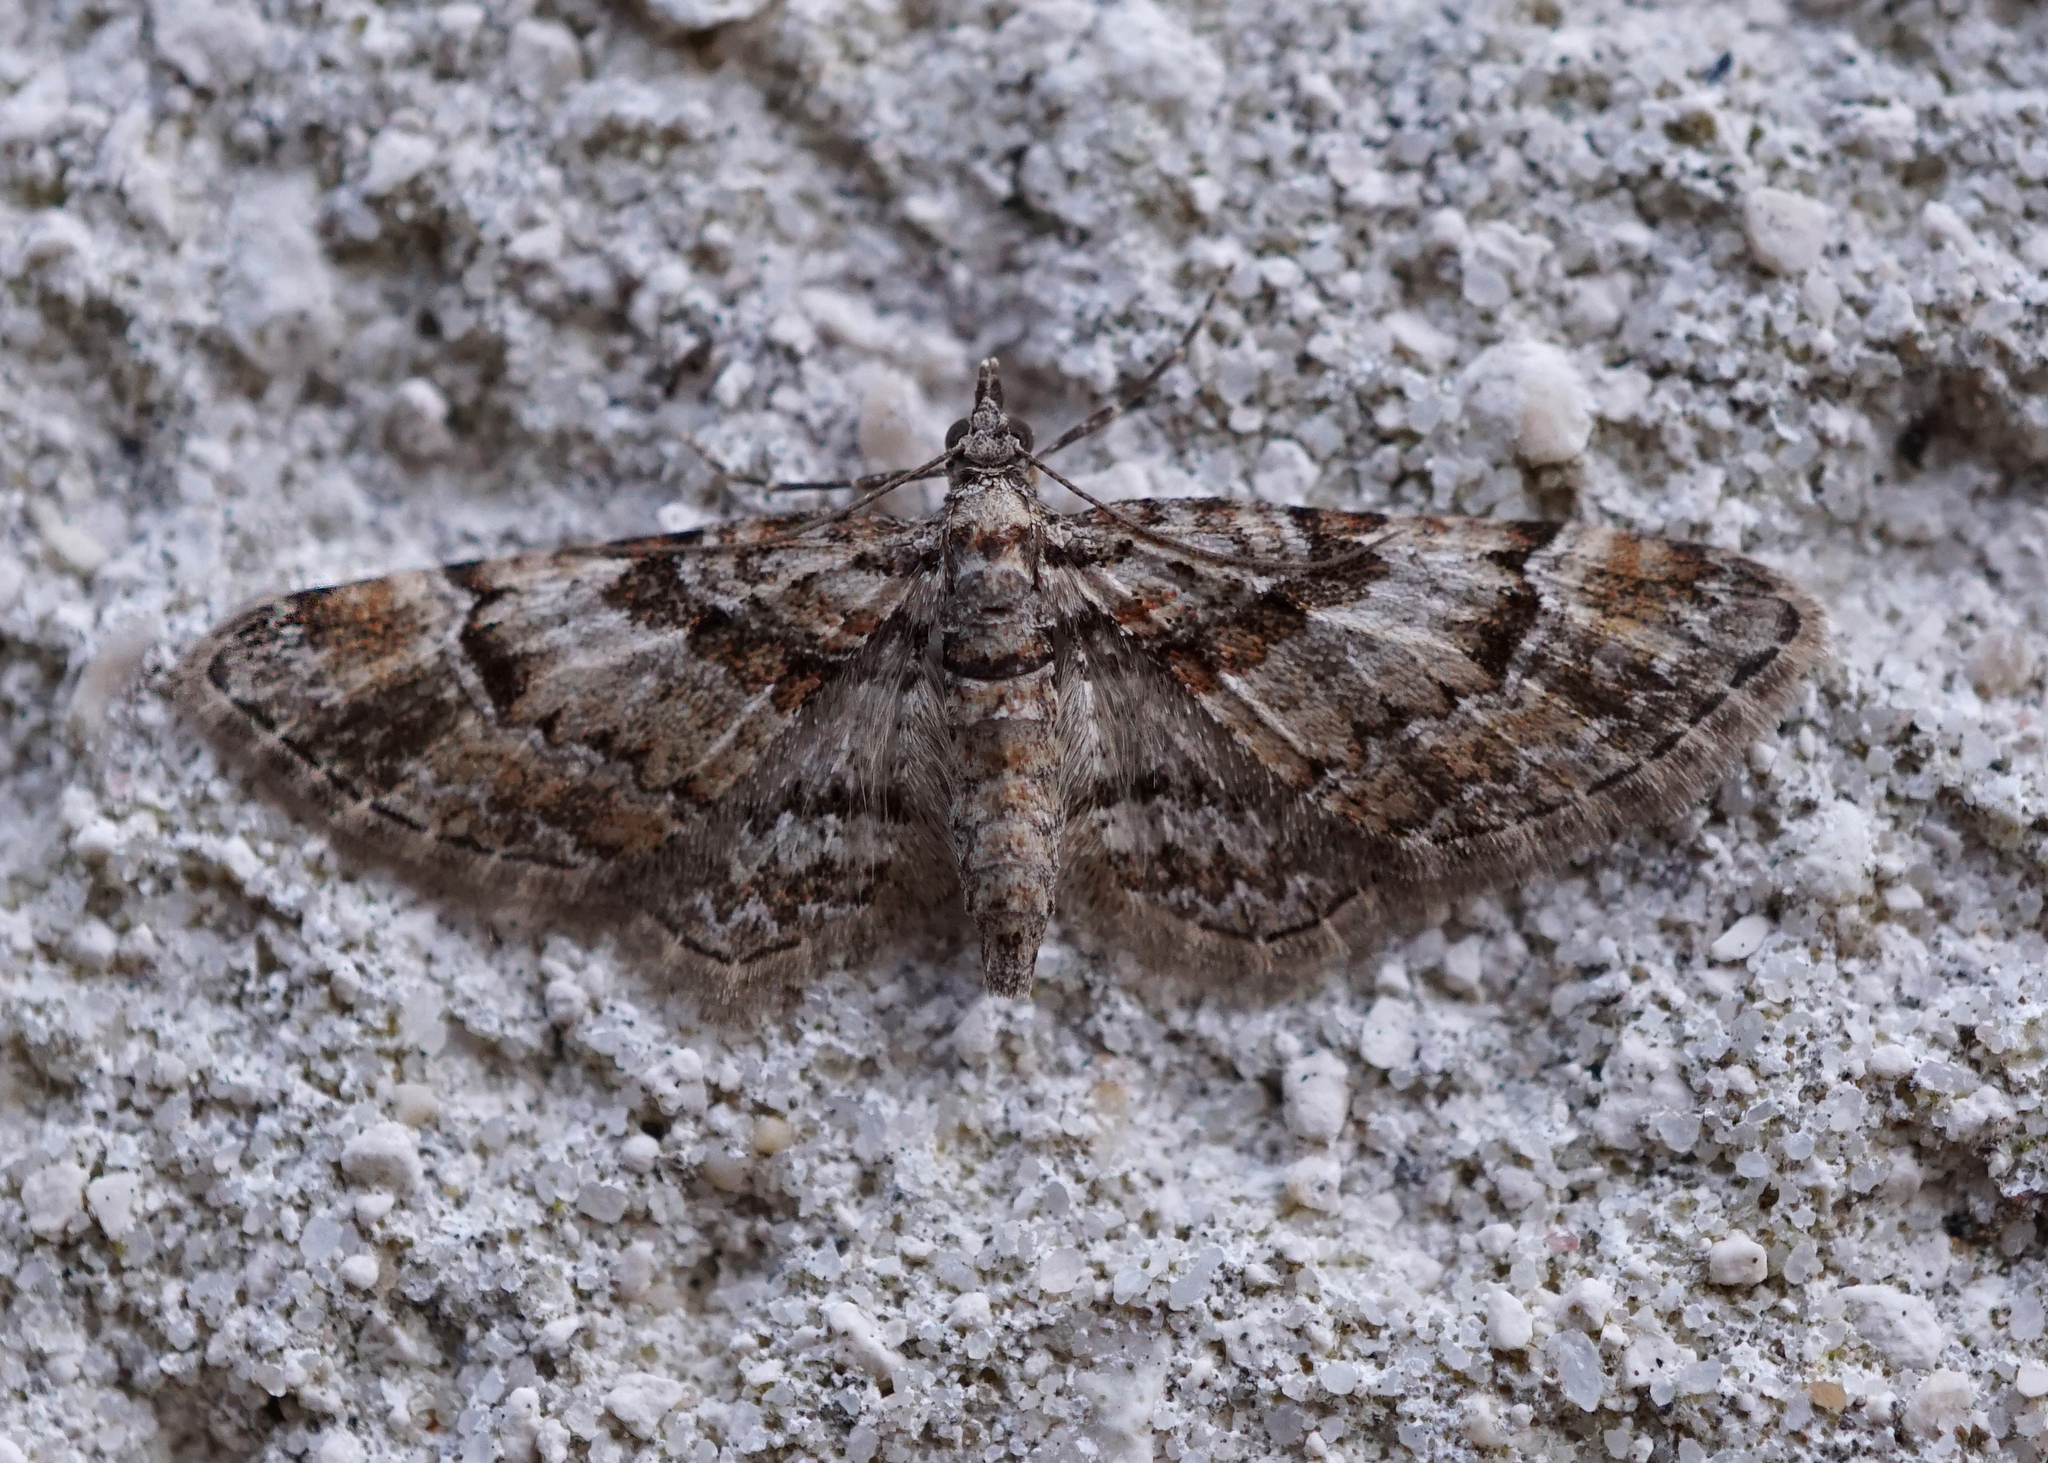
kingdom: Animalia
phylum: Arthropoda
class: Insecta
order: Lepidoptera
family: Geometridae
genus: Gymnoscelis
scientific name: Gymnoscelis rufifasciata
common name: Double-striped pug
